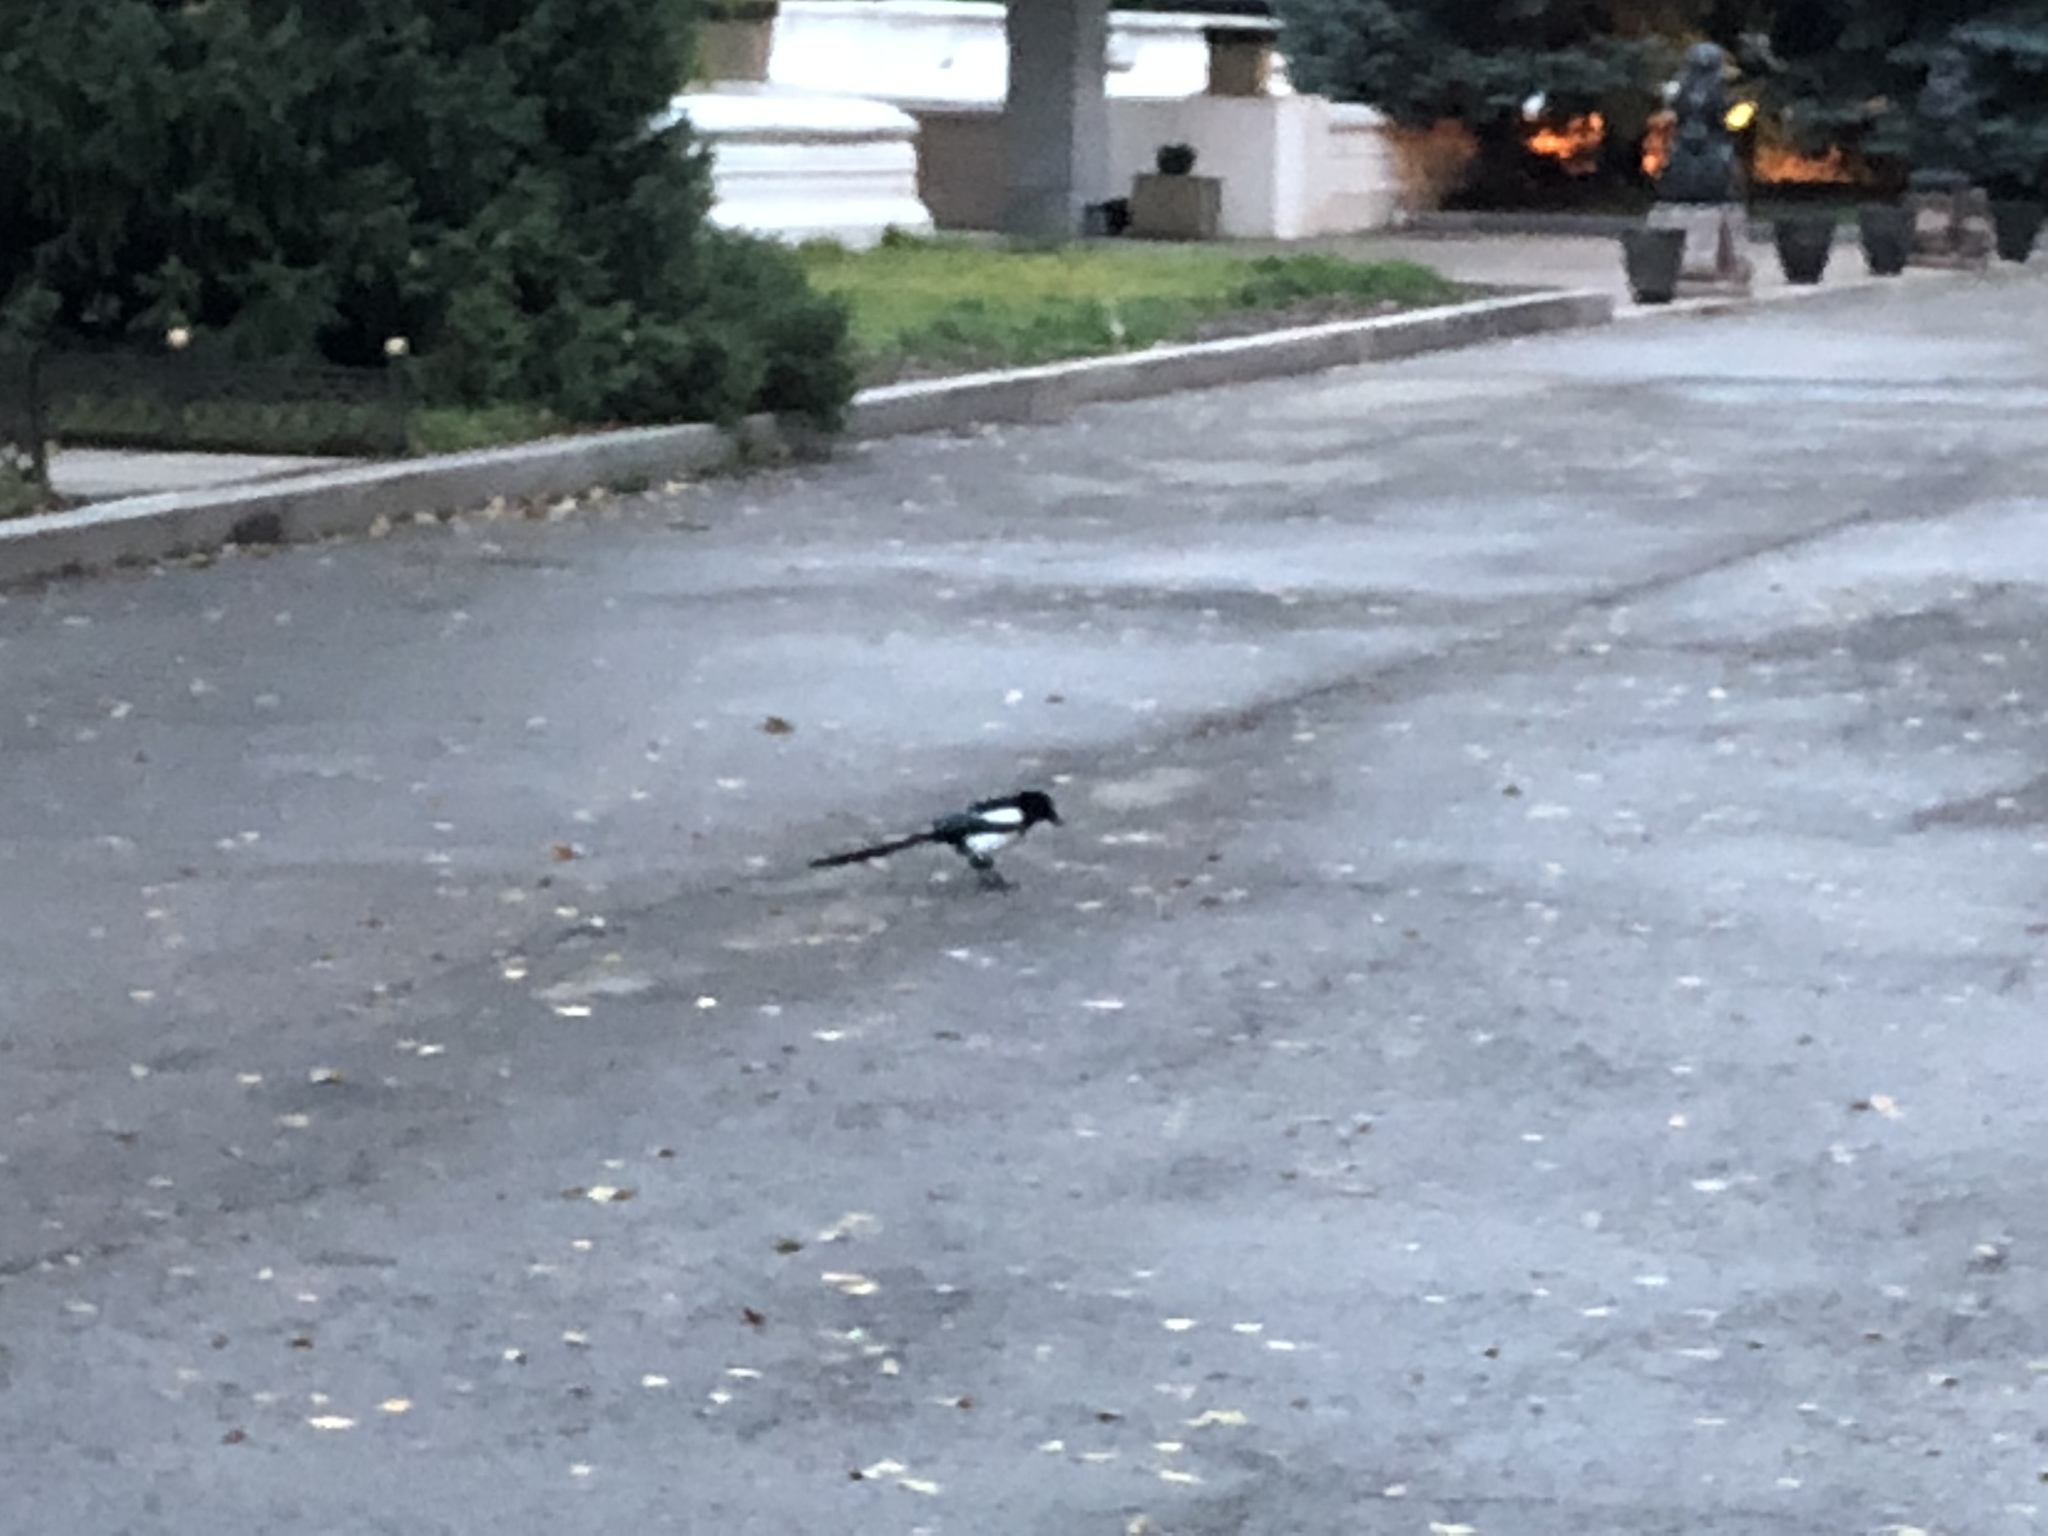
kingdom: Animalia
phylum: Chordata
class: Aves
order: Passeriformes
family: Corvidae
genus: Pica
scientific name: Pica pica
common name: Eurasian magpie
